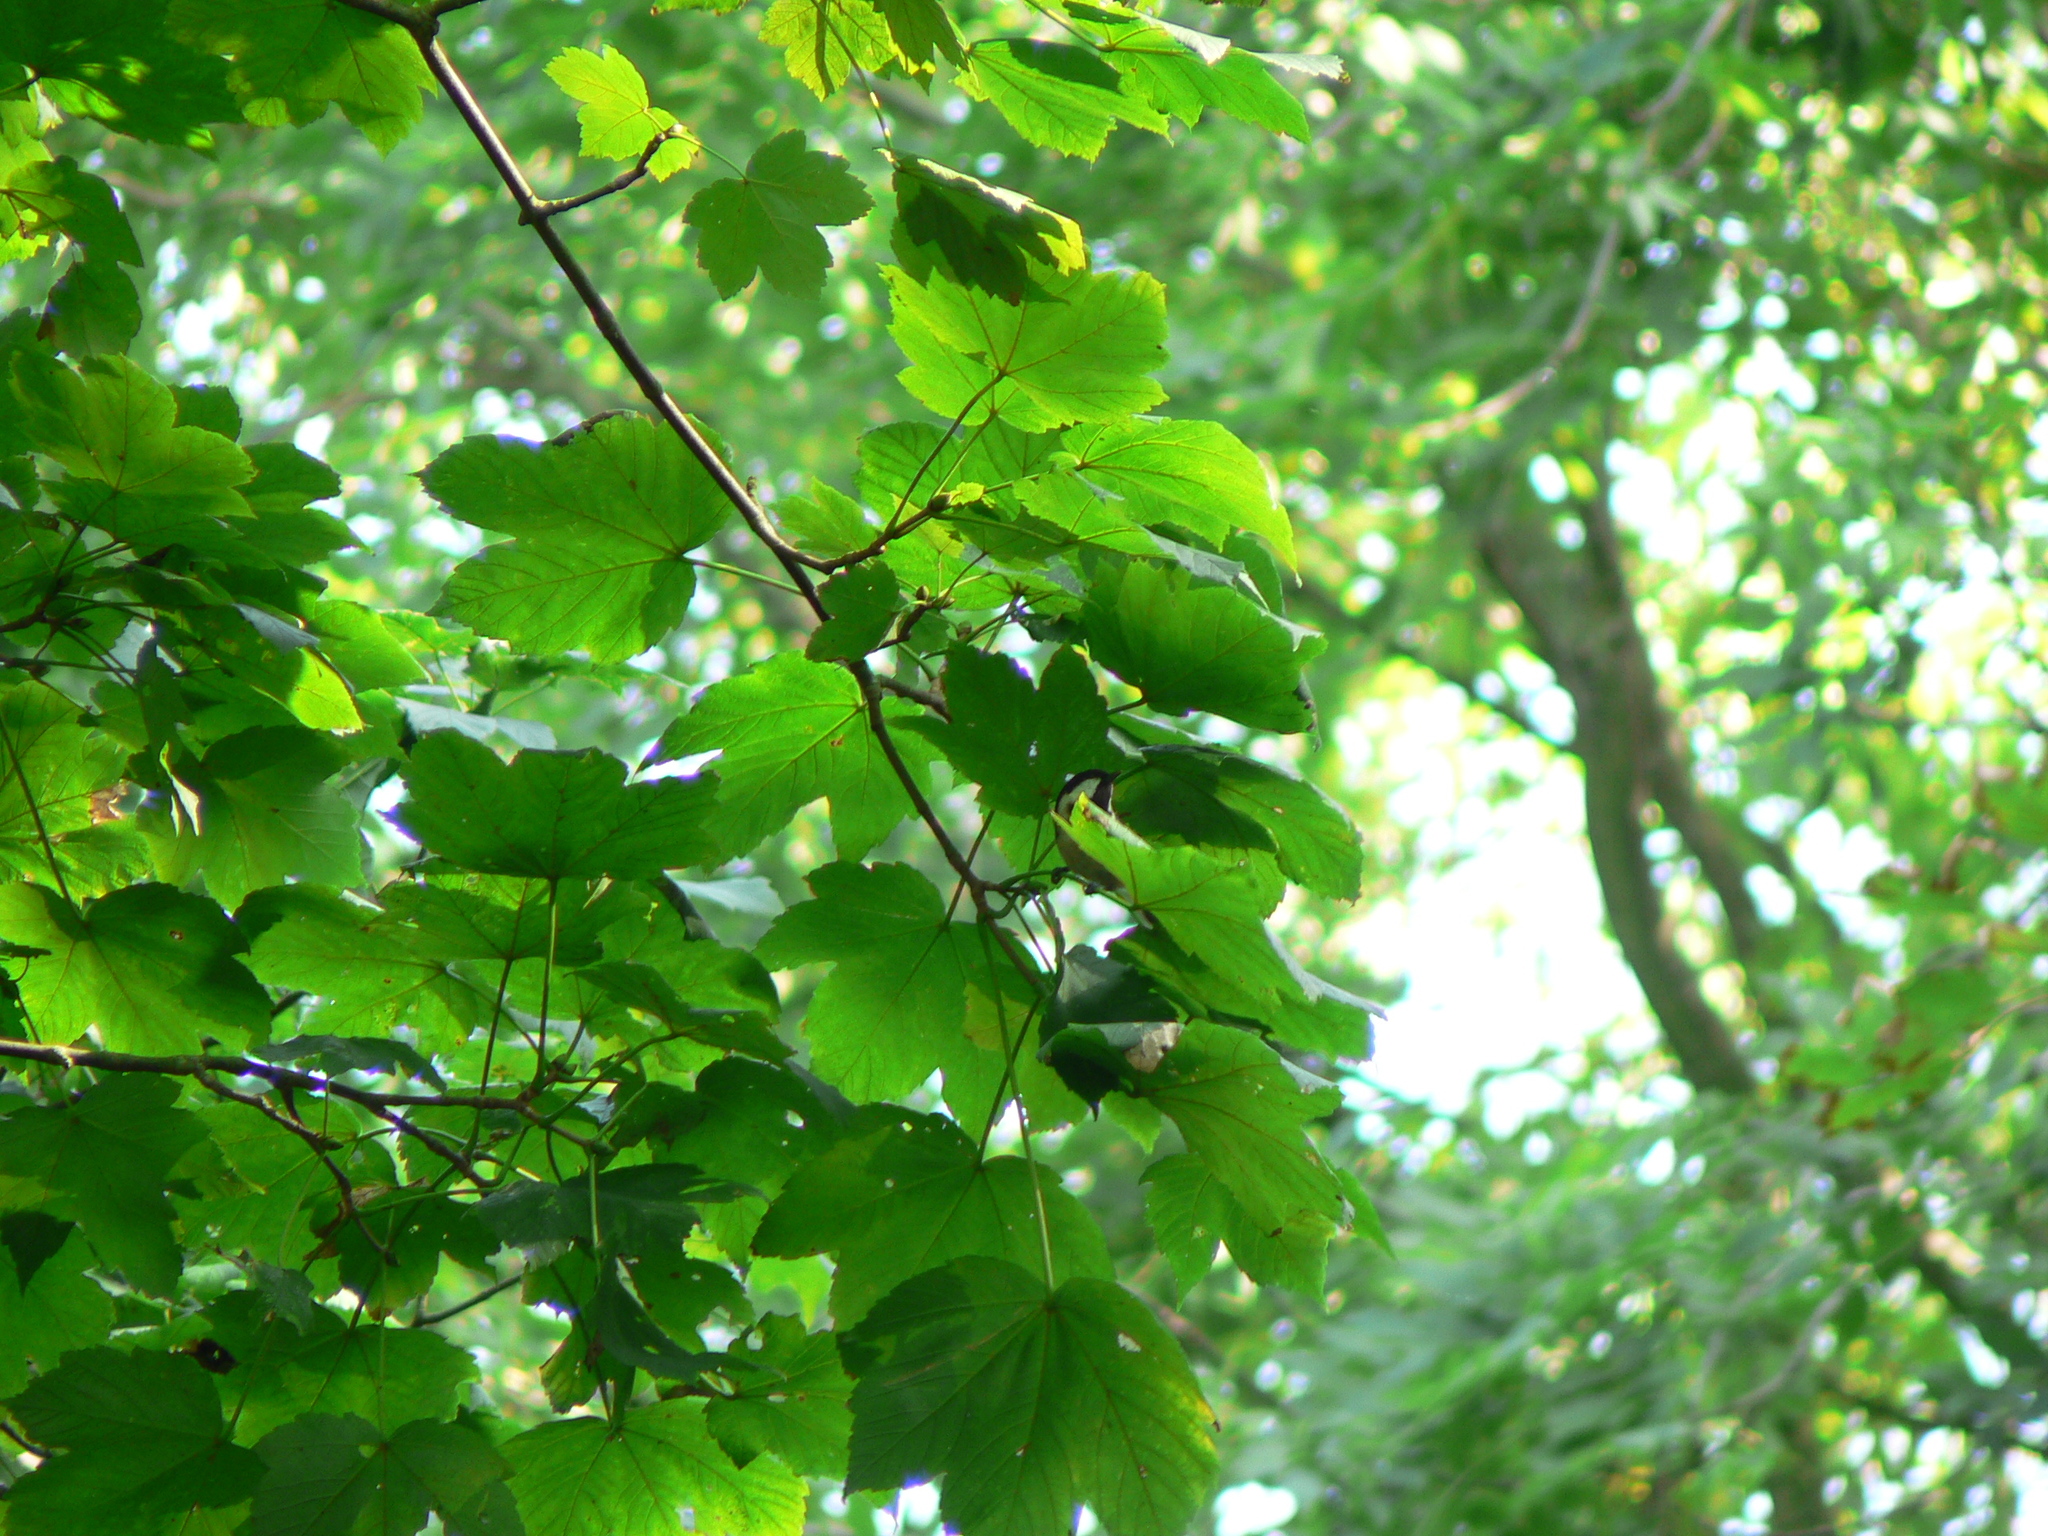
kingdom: Animalia
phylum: Chordata
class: Aves
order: Passeriformes
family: Paridae
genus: Periparus
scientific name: Periparus ater
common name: Coal tit
